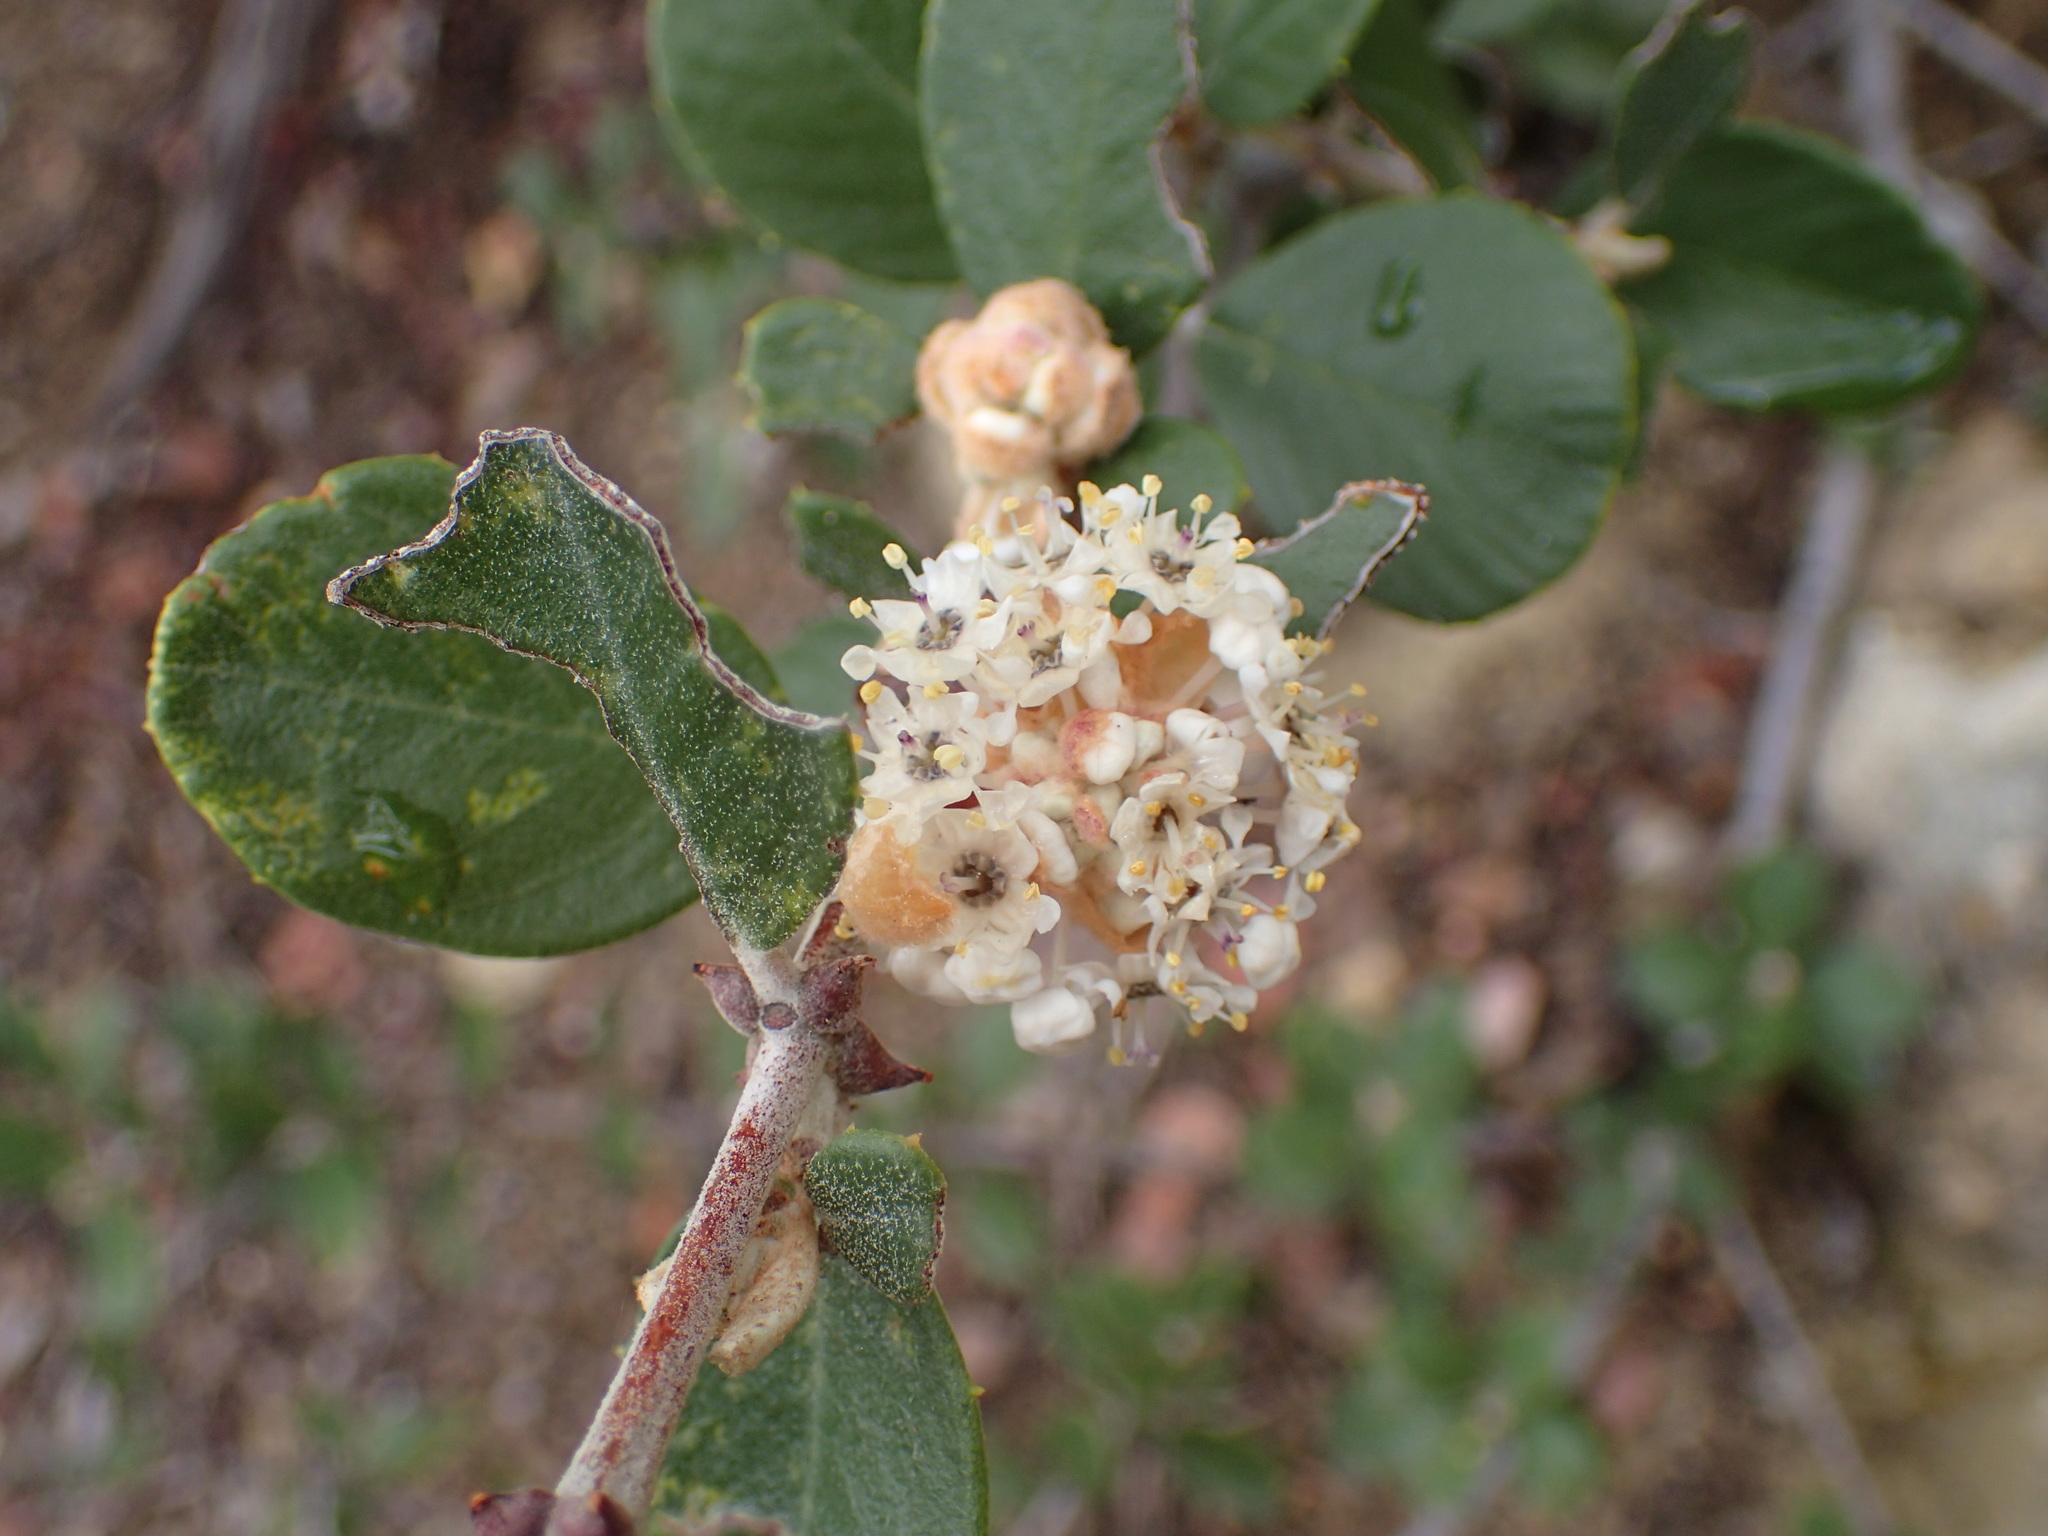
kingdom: Plantae
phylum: Tracheophyta
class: Magnoliopsida
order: Rosales
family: Rhamnaceae
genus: Ceanothus
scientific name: Ceanothus crassifolius
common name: Hoaryleaf ceanothus
